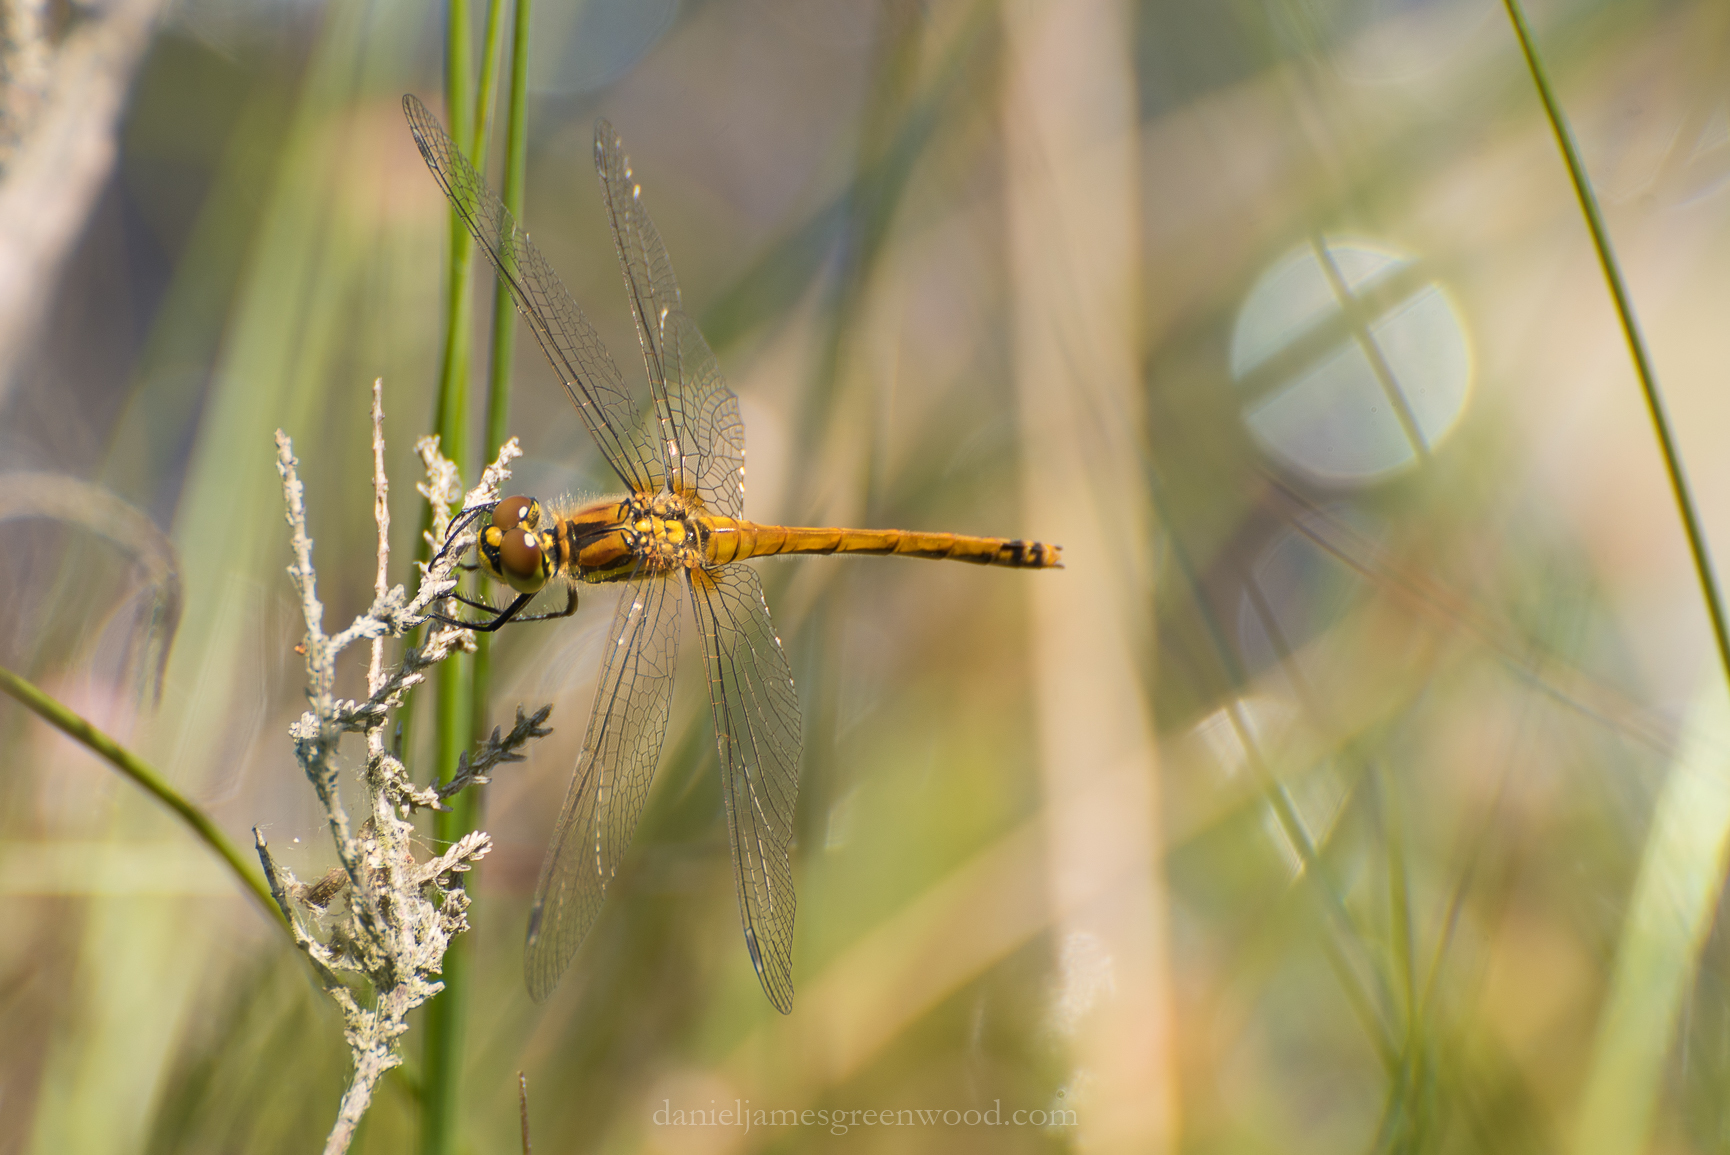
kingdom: Animalia
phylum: Arthropoda
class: Insecta
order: Odonata
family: Libellulidae
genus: Sympetrum
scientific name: Sympetrum danae
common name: Black darter
